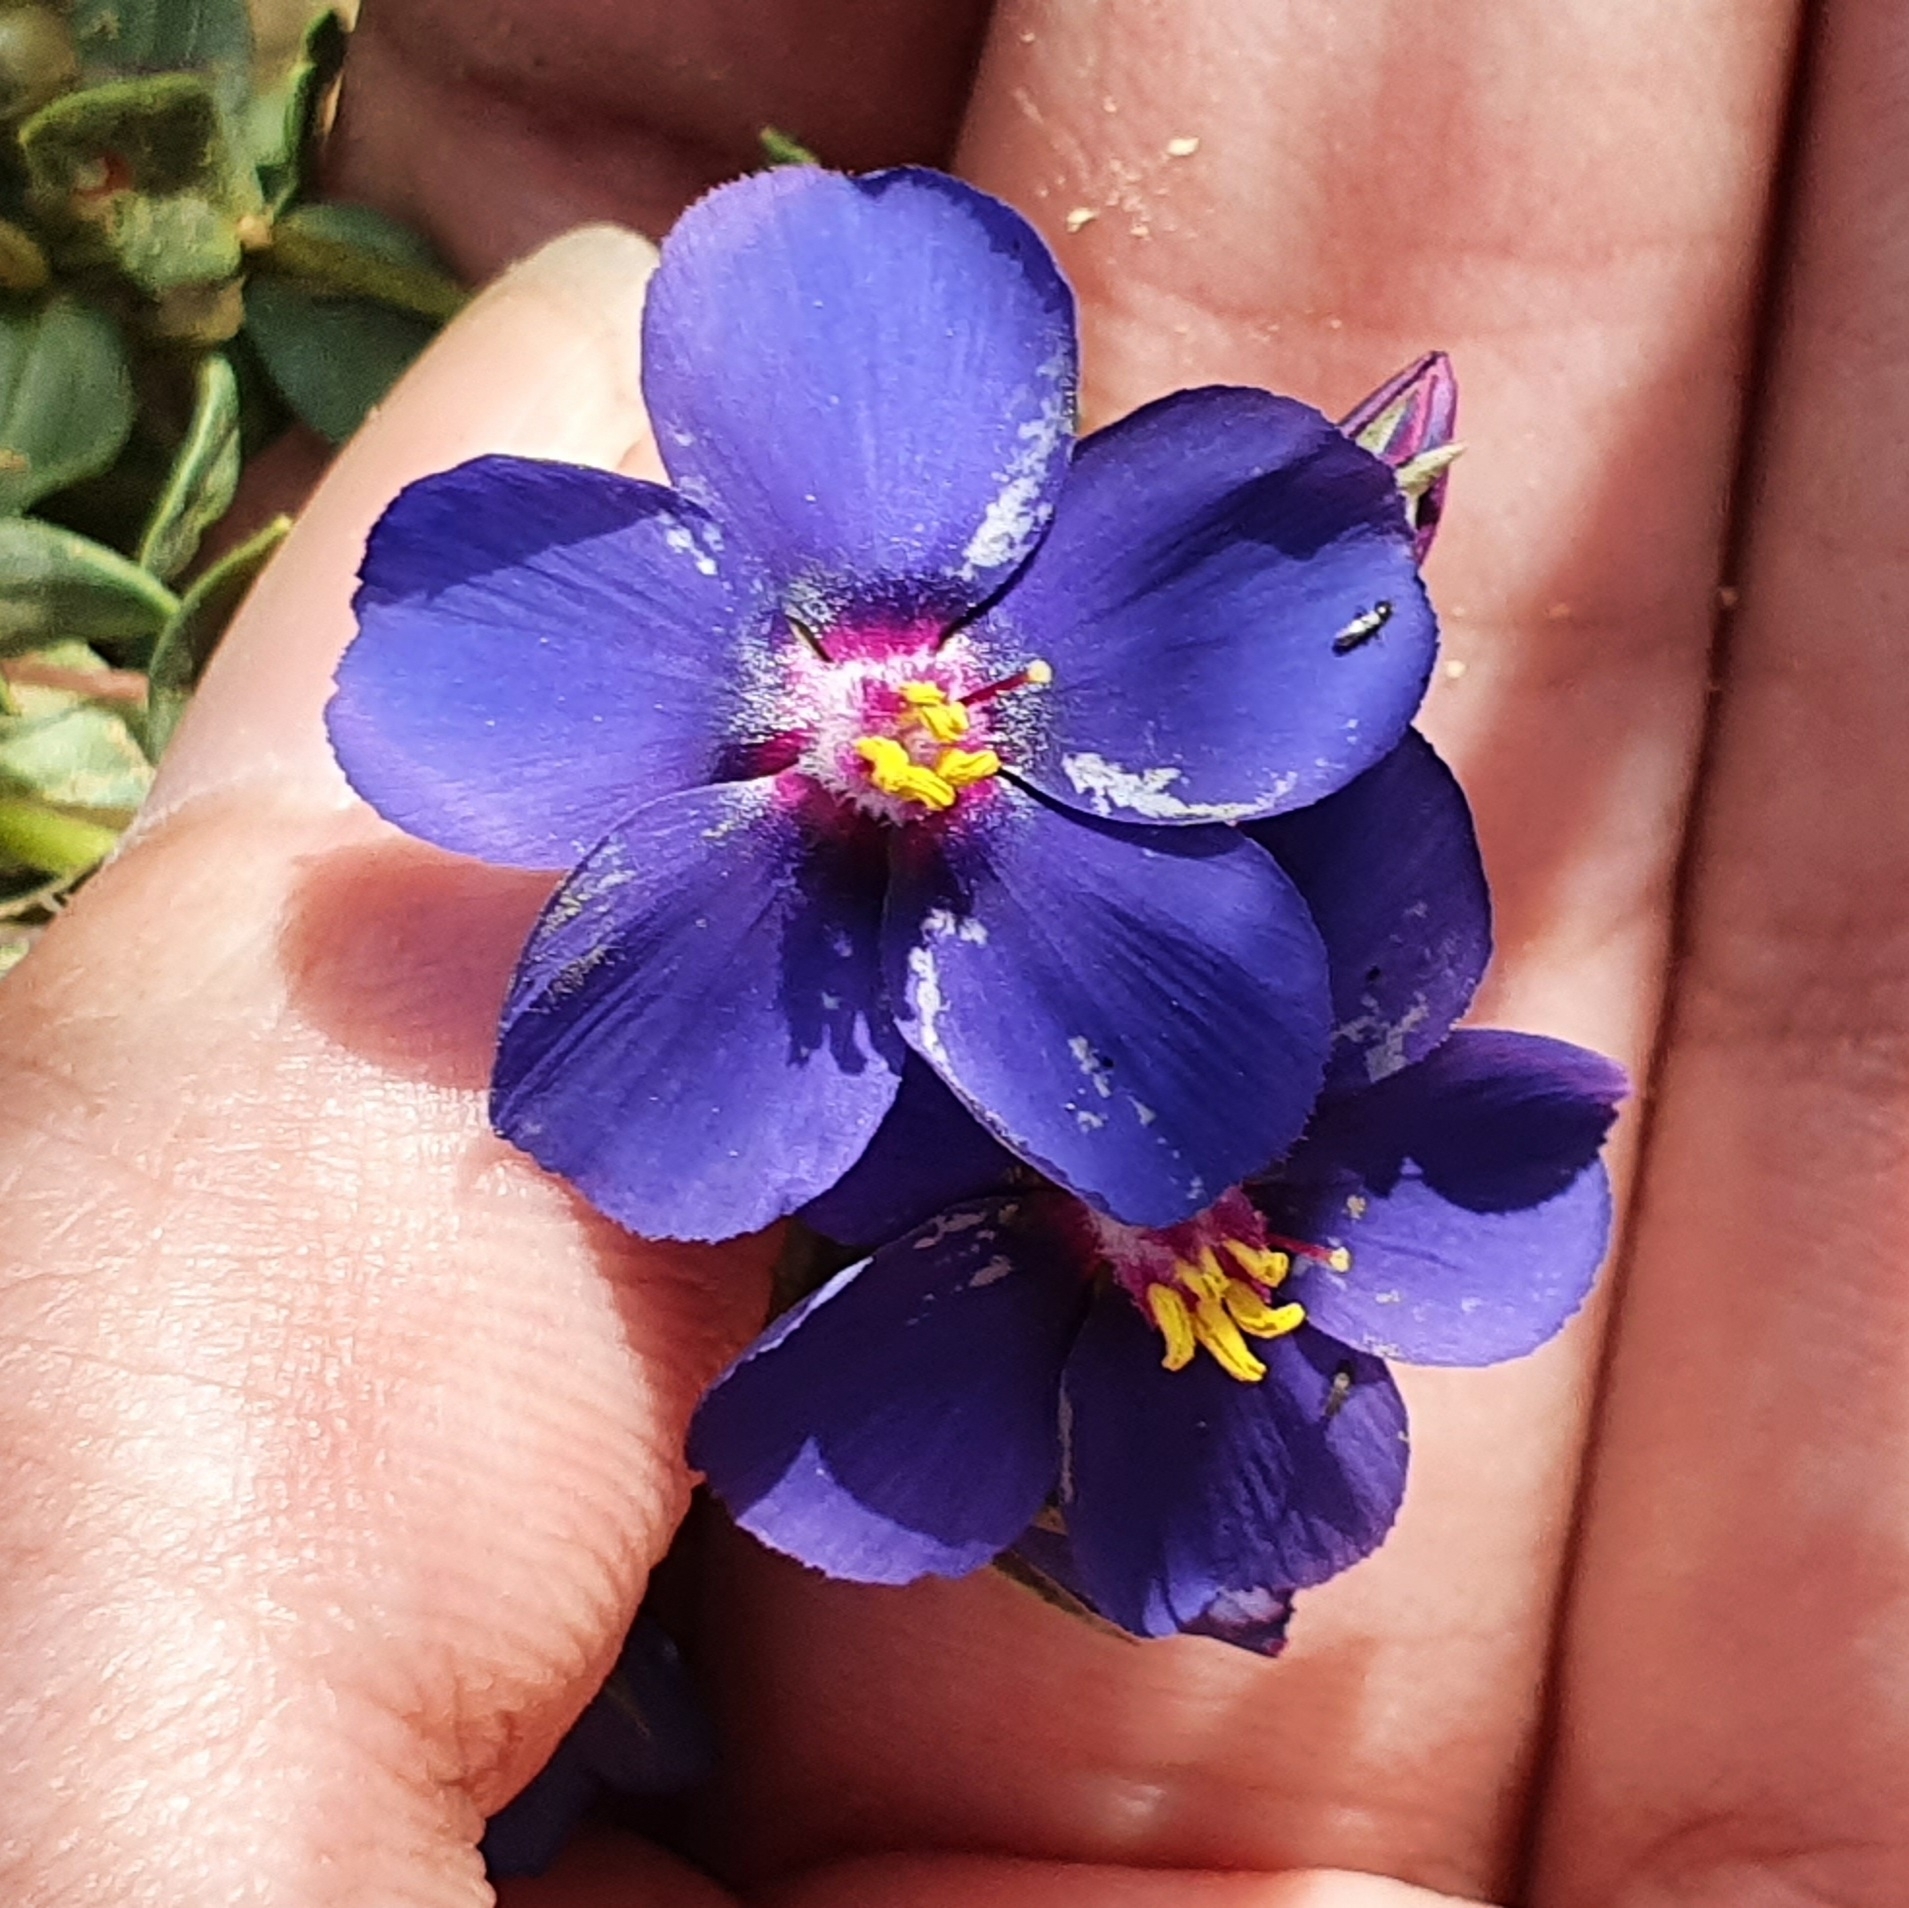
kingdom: Plantae
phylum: Tracheophyta
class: Magnoliopsida
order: Ericales
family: Primulaceae
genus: Lysimachia
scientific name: Lysimachia monelli
